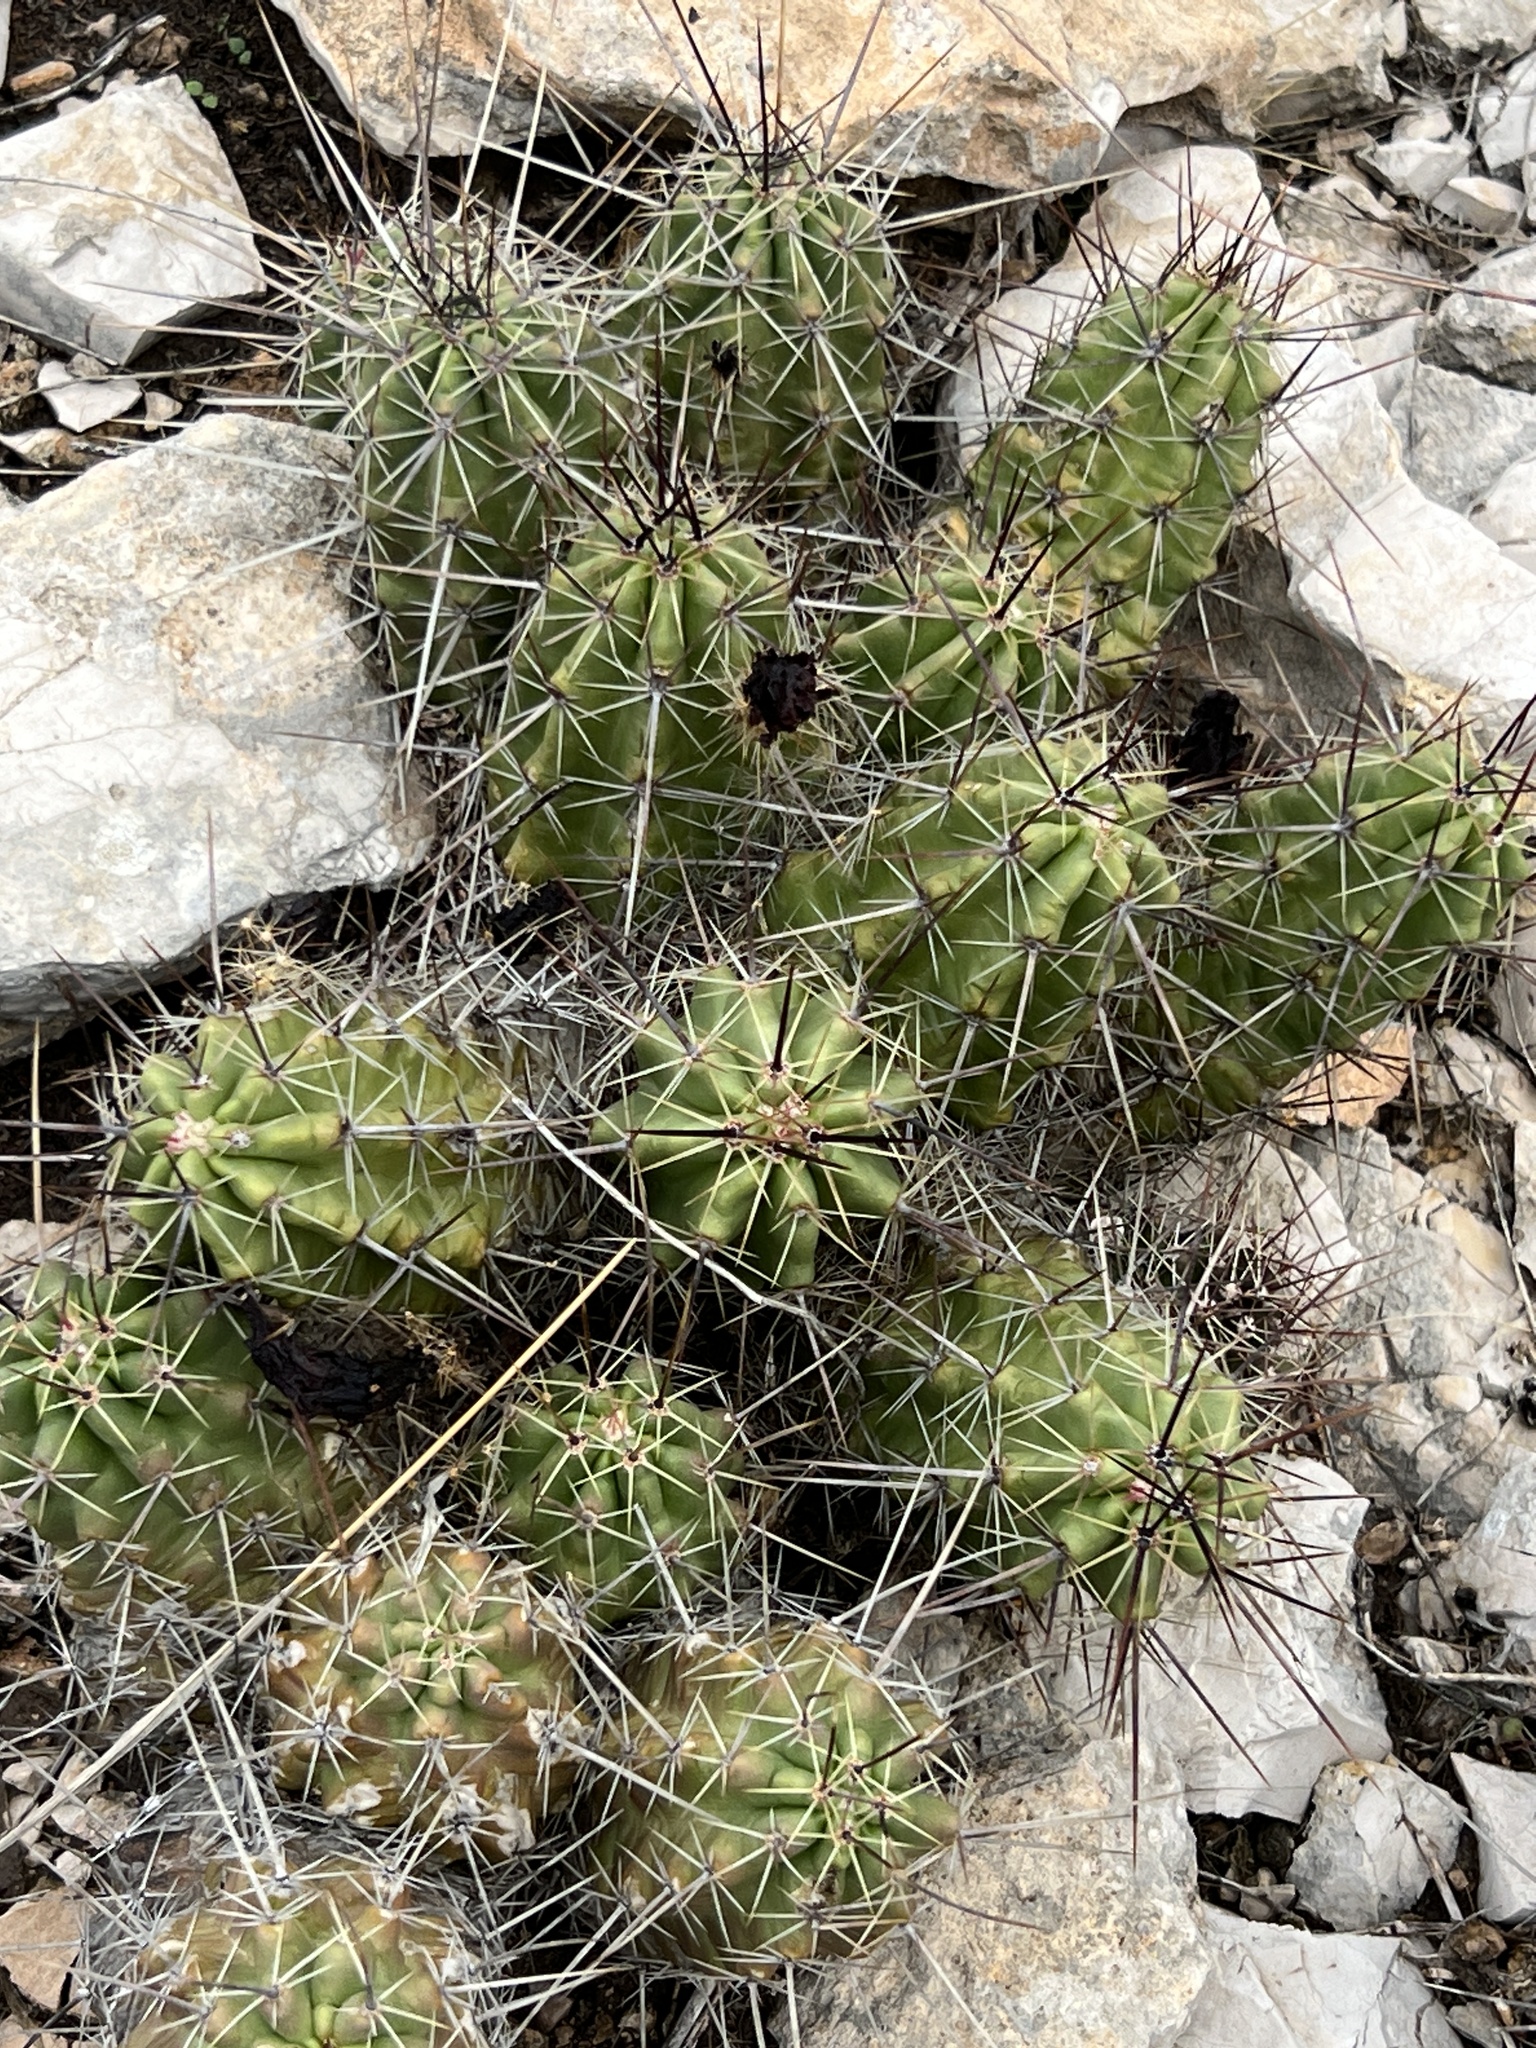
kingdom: Plantae
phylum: Tracheophyta
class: Magnoliopsida
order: Caryophyllales
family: Cactaceae
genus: Echinocereus
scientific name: Echinocereus enneacanthus
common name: Pitaya
